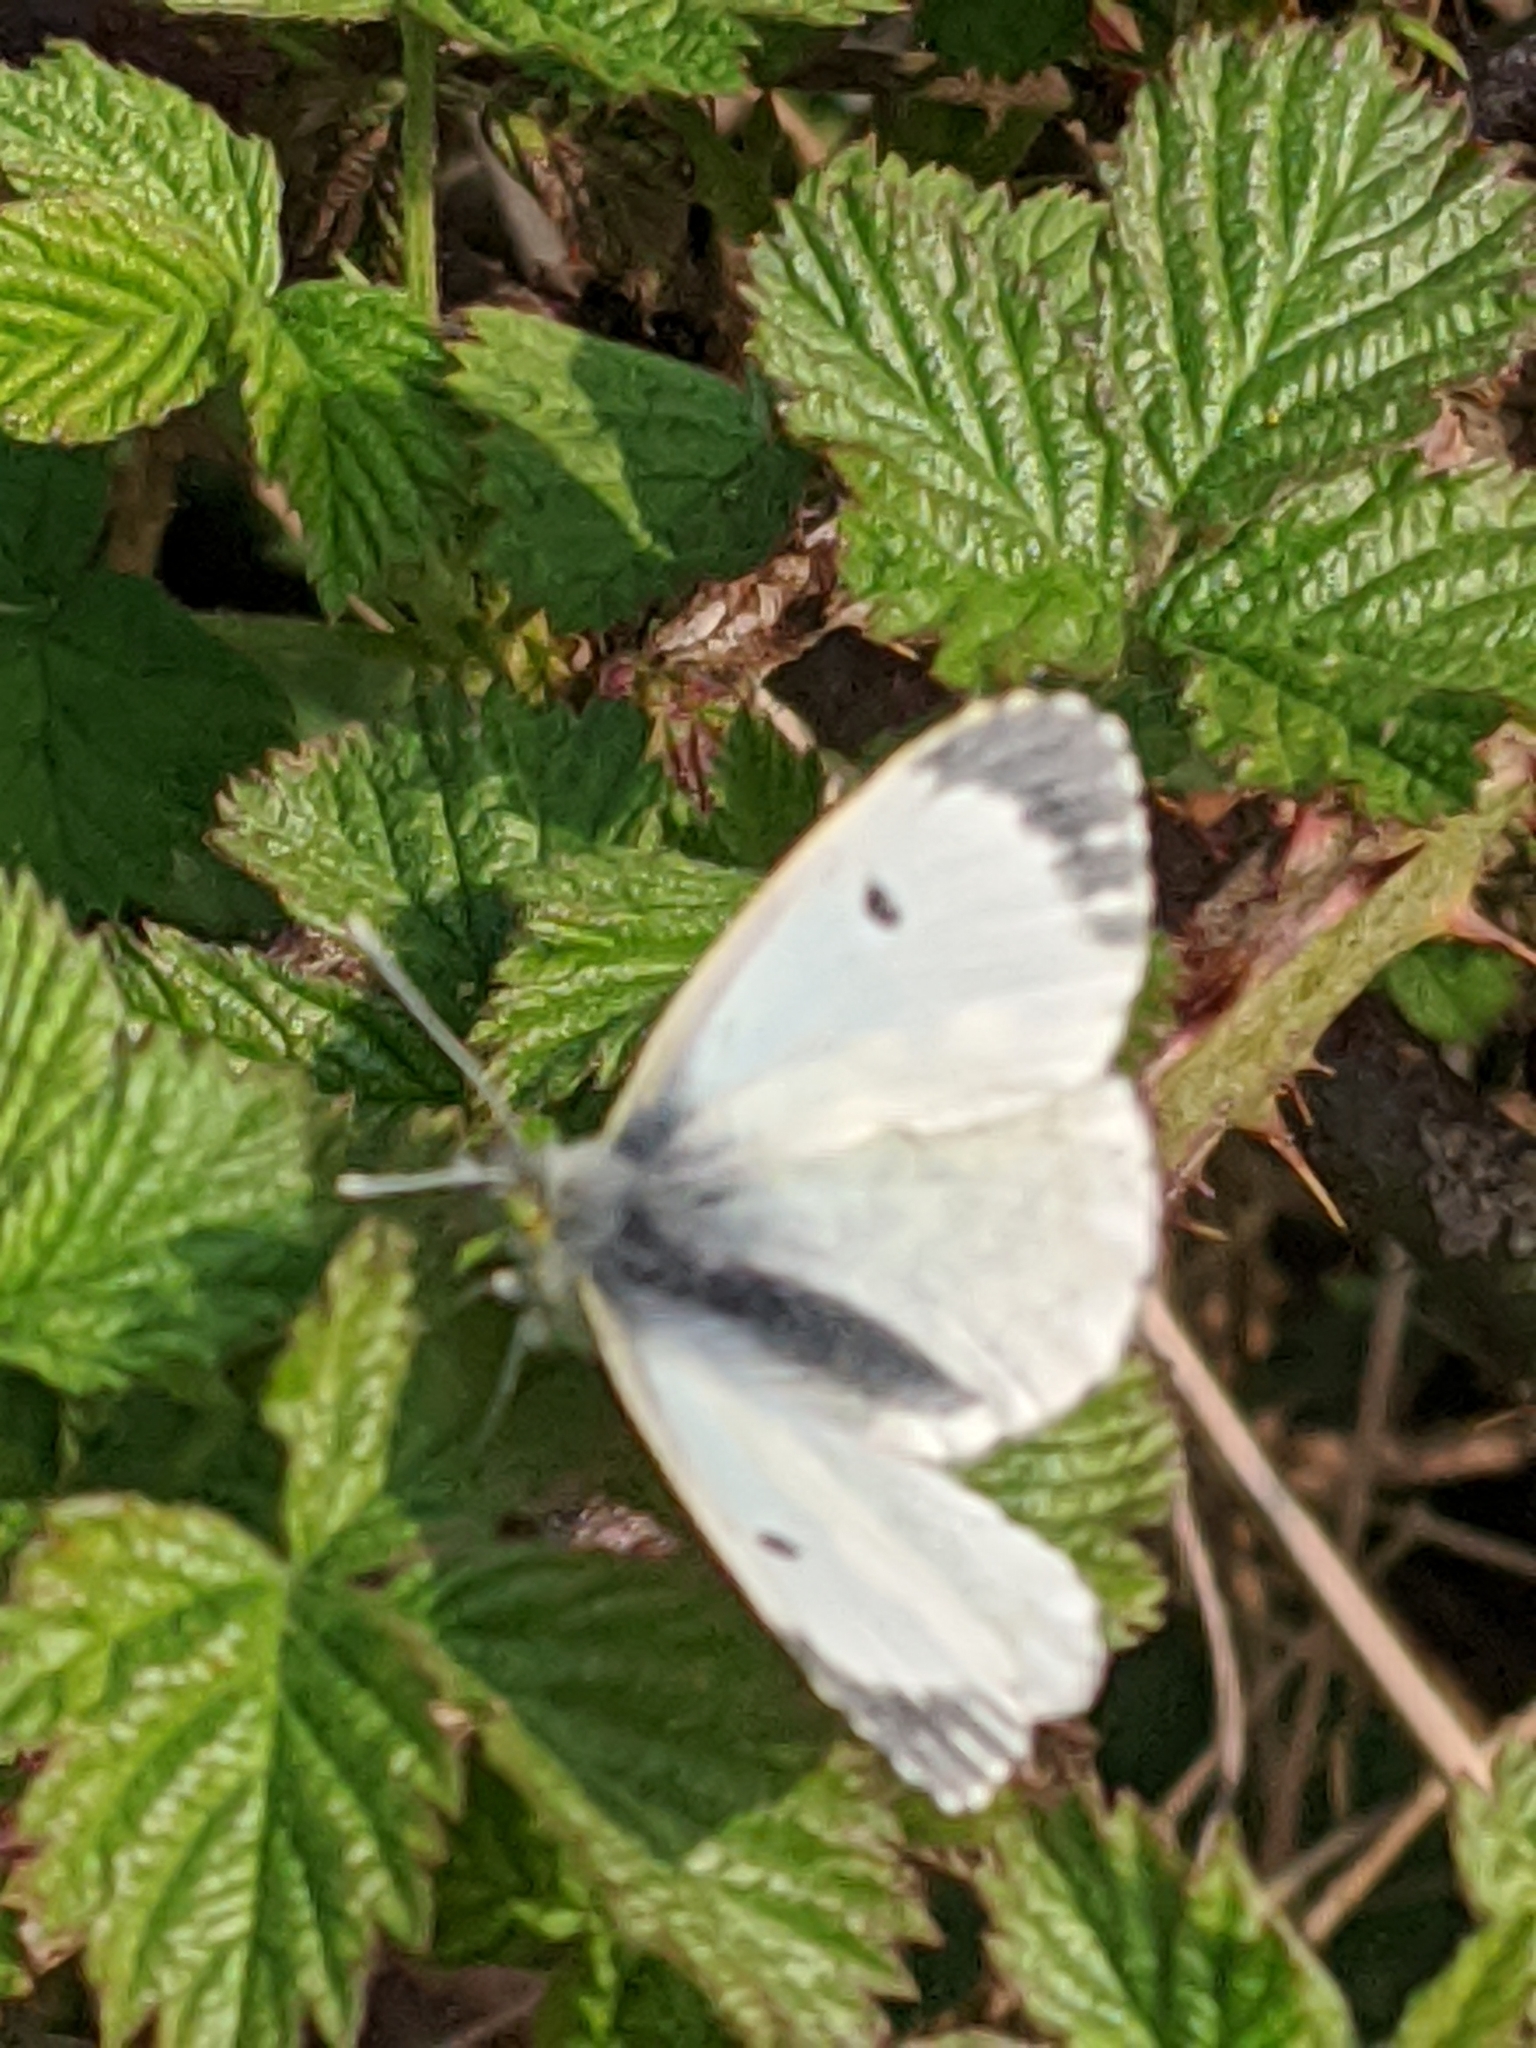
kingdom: Animalia
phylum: Arthropoda
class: Insecta
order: Lepidoptera
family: Pieridae
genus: Anthocharis
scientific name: Anthocharis cardamines
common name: Orange-tip
